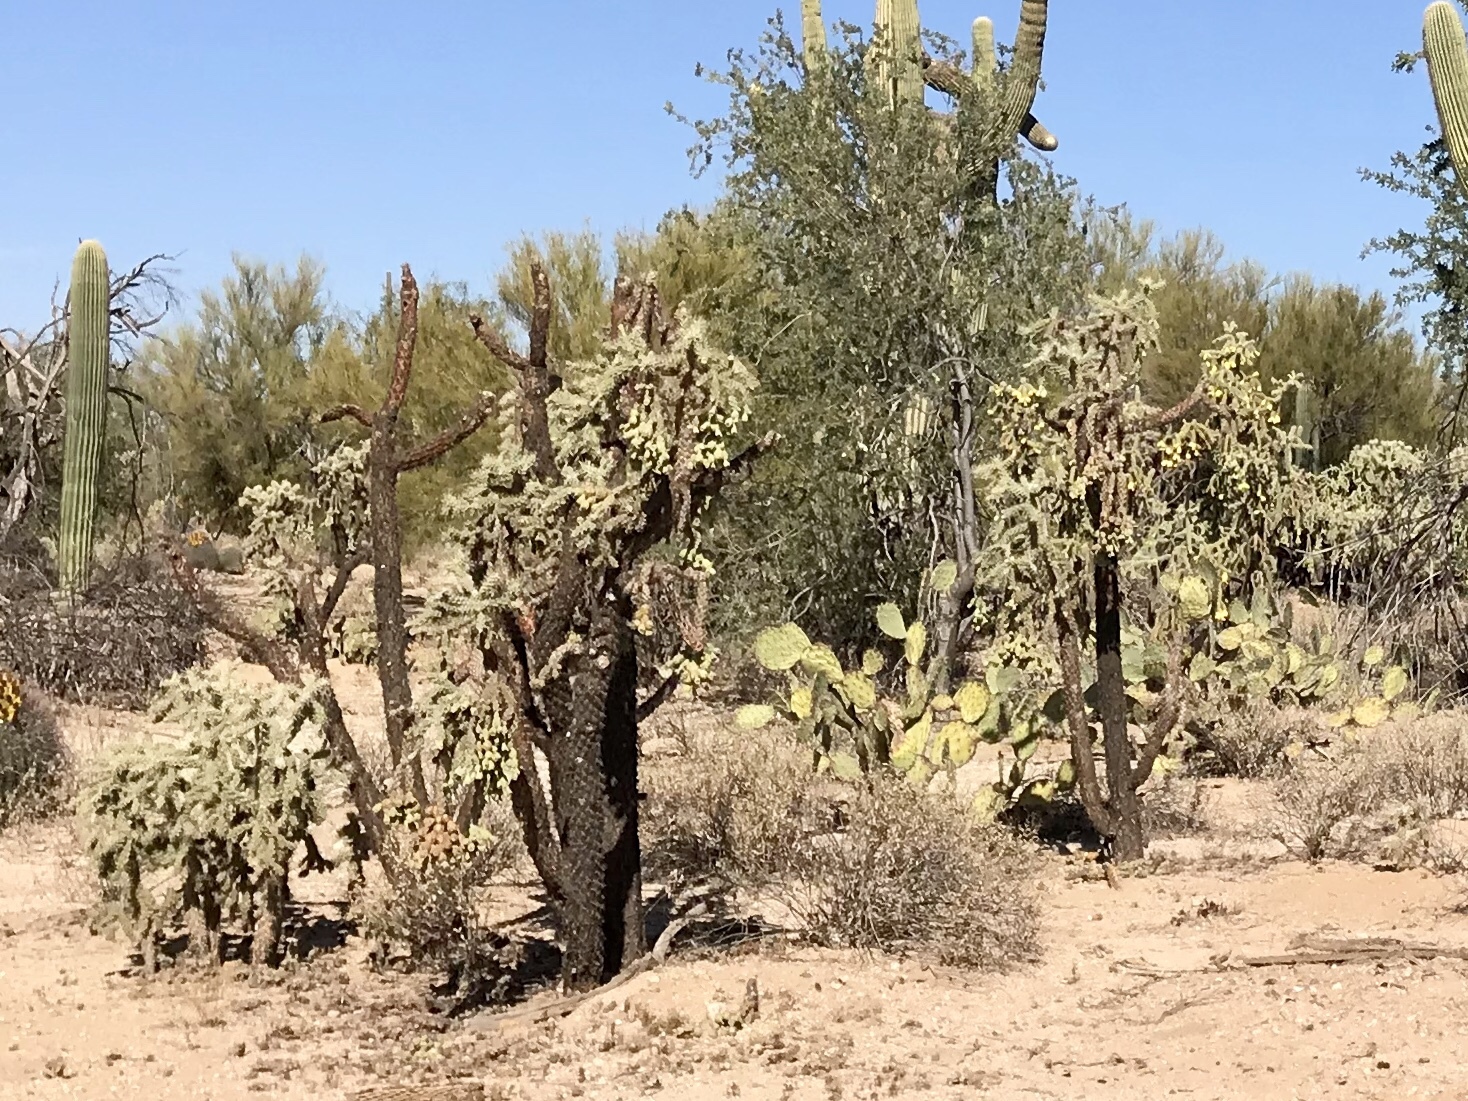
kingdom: Plantae
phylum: Tracheophyta
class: Magnoliopsida
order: Caryophyllales
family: Cactaceae
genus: Cylindropuntia
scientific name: Cylindropuntia fulgida
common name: Jumping cholla
